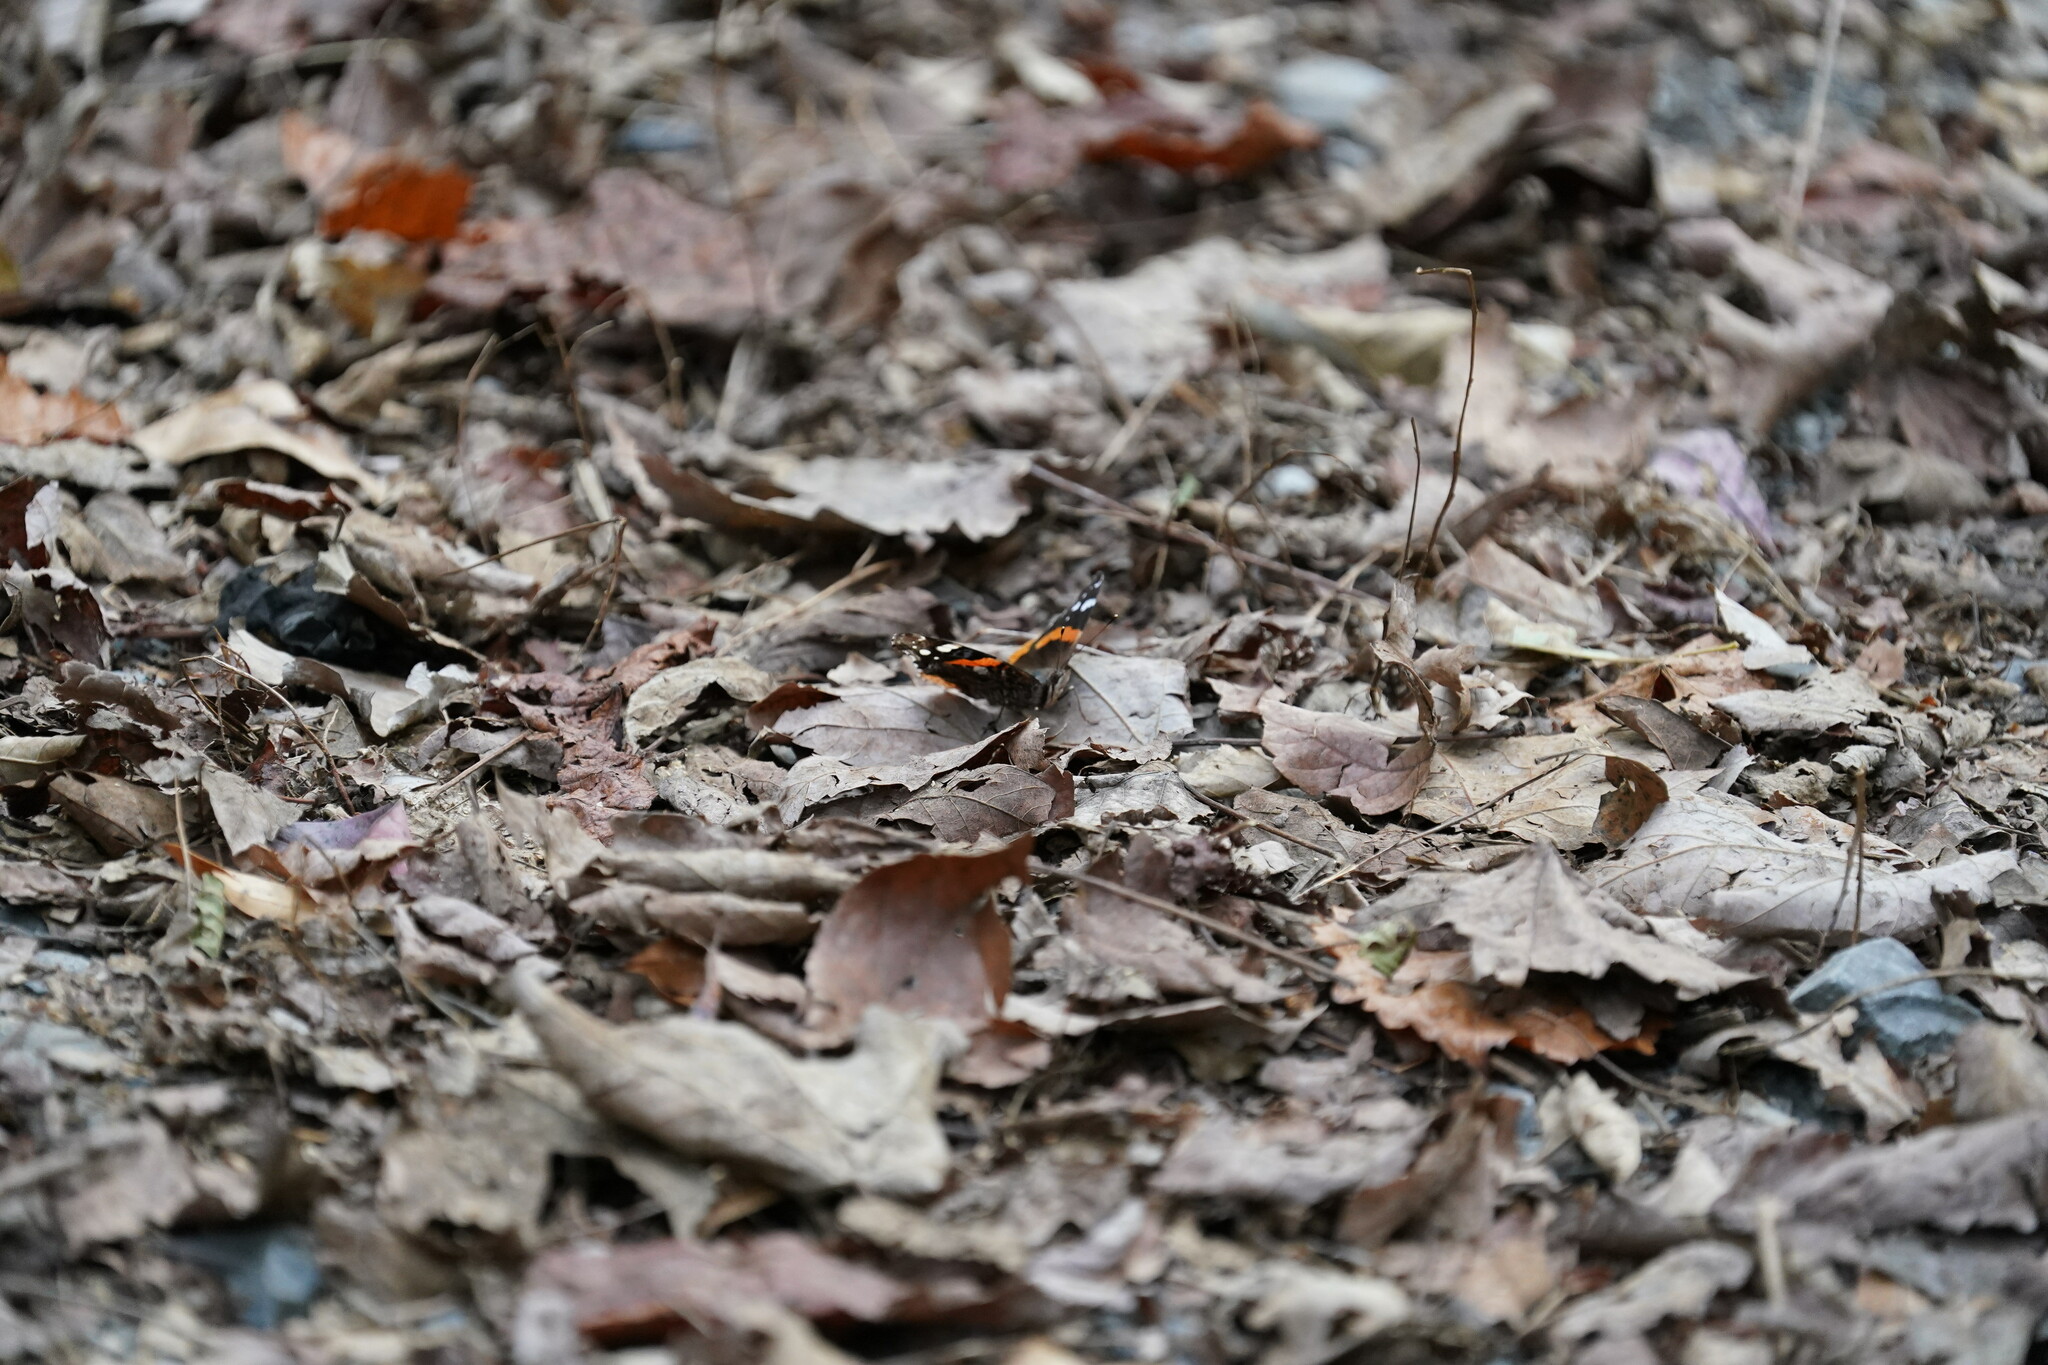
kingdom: Animalia
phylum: Arthropoda
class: Insecta
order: Lepidoptera
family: Nymphalidae
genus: Vanessa
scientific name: Vanessa atalanta
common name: Red admiral
